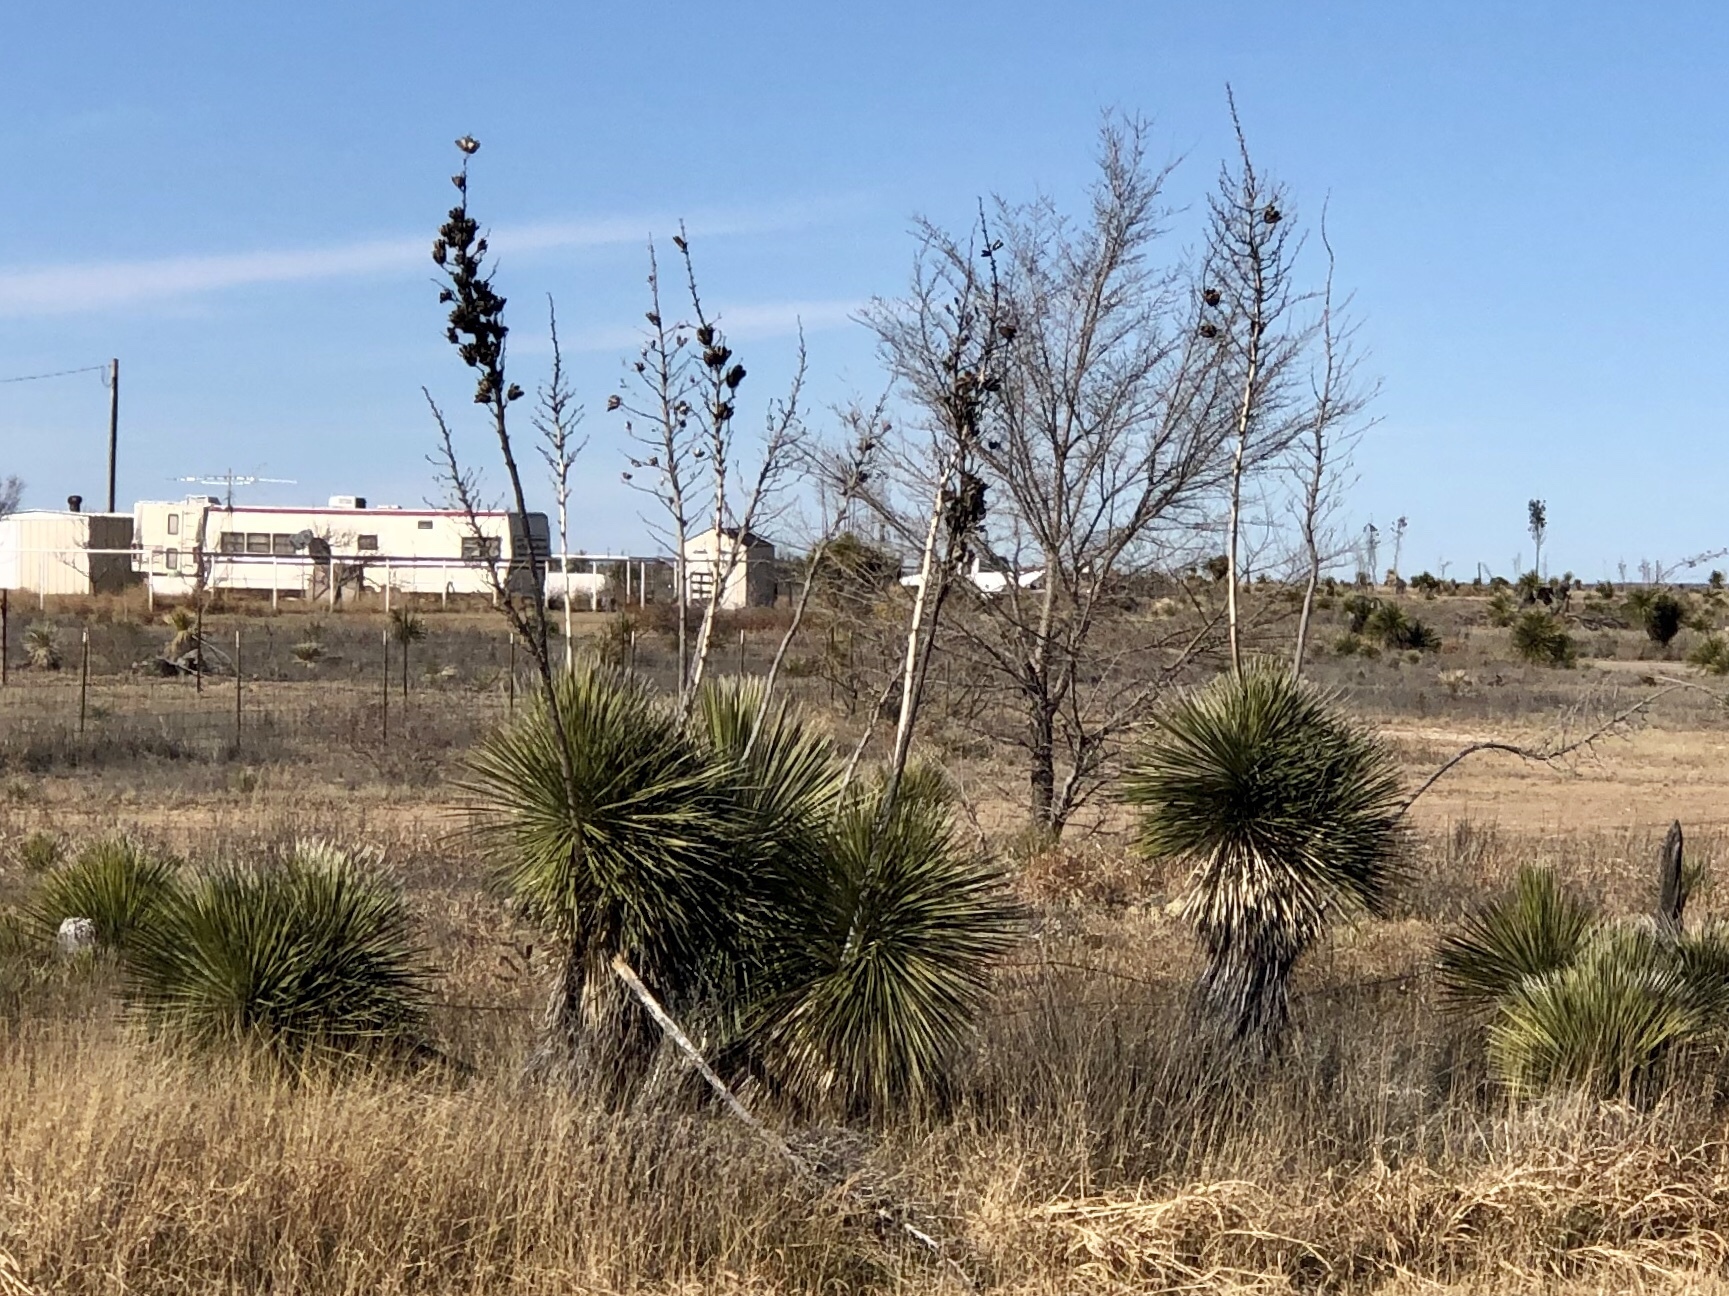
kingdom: Plantae
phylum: Tracheophyta
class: Liliopsida
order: Asparagales
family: Asparagaceae
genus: Yucca
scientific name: Yucca elata
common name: Palmella
